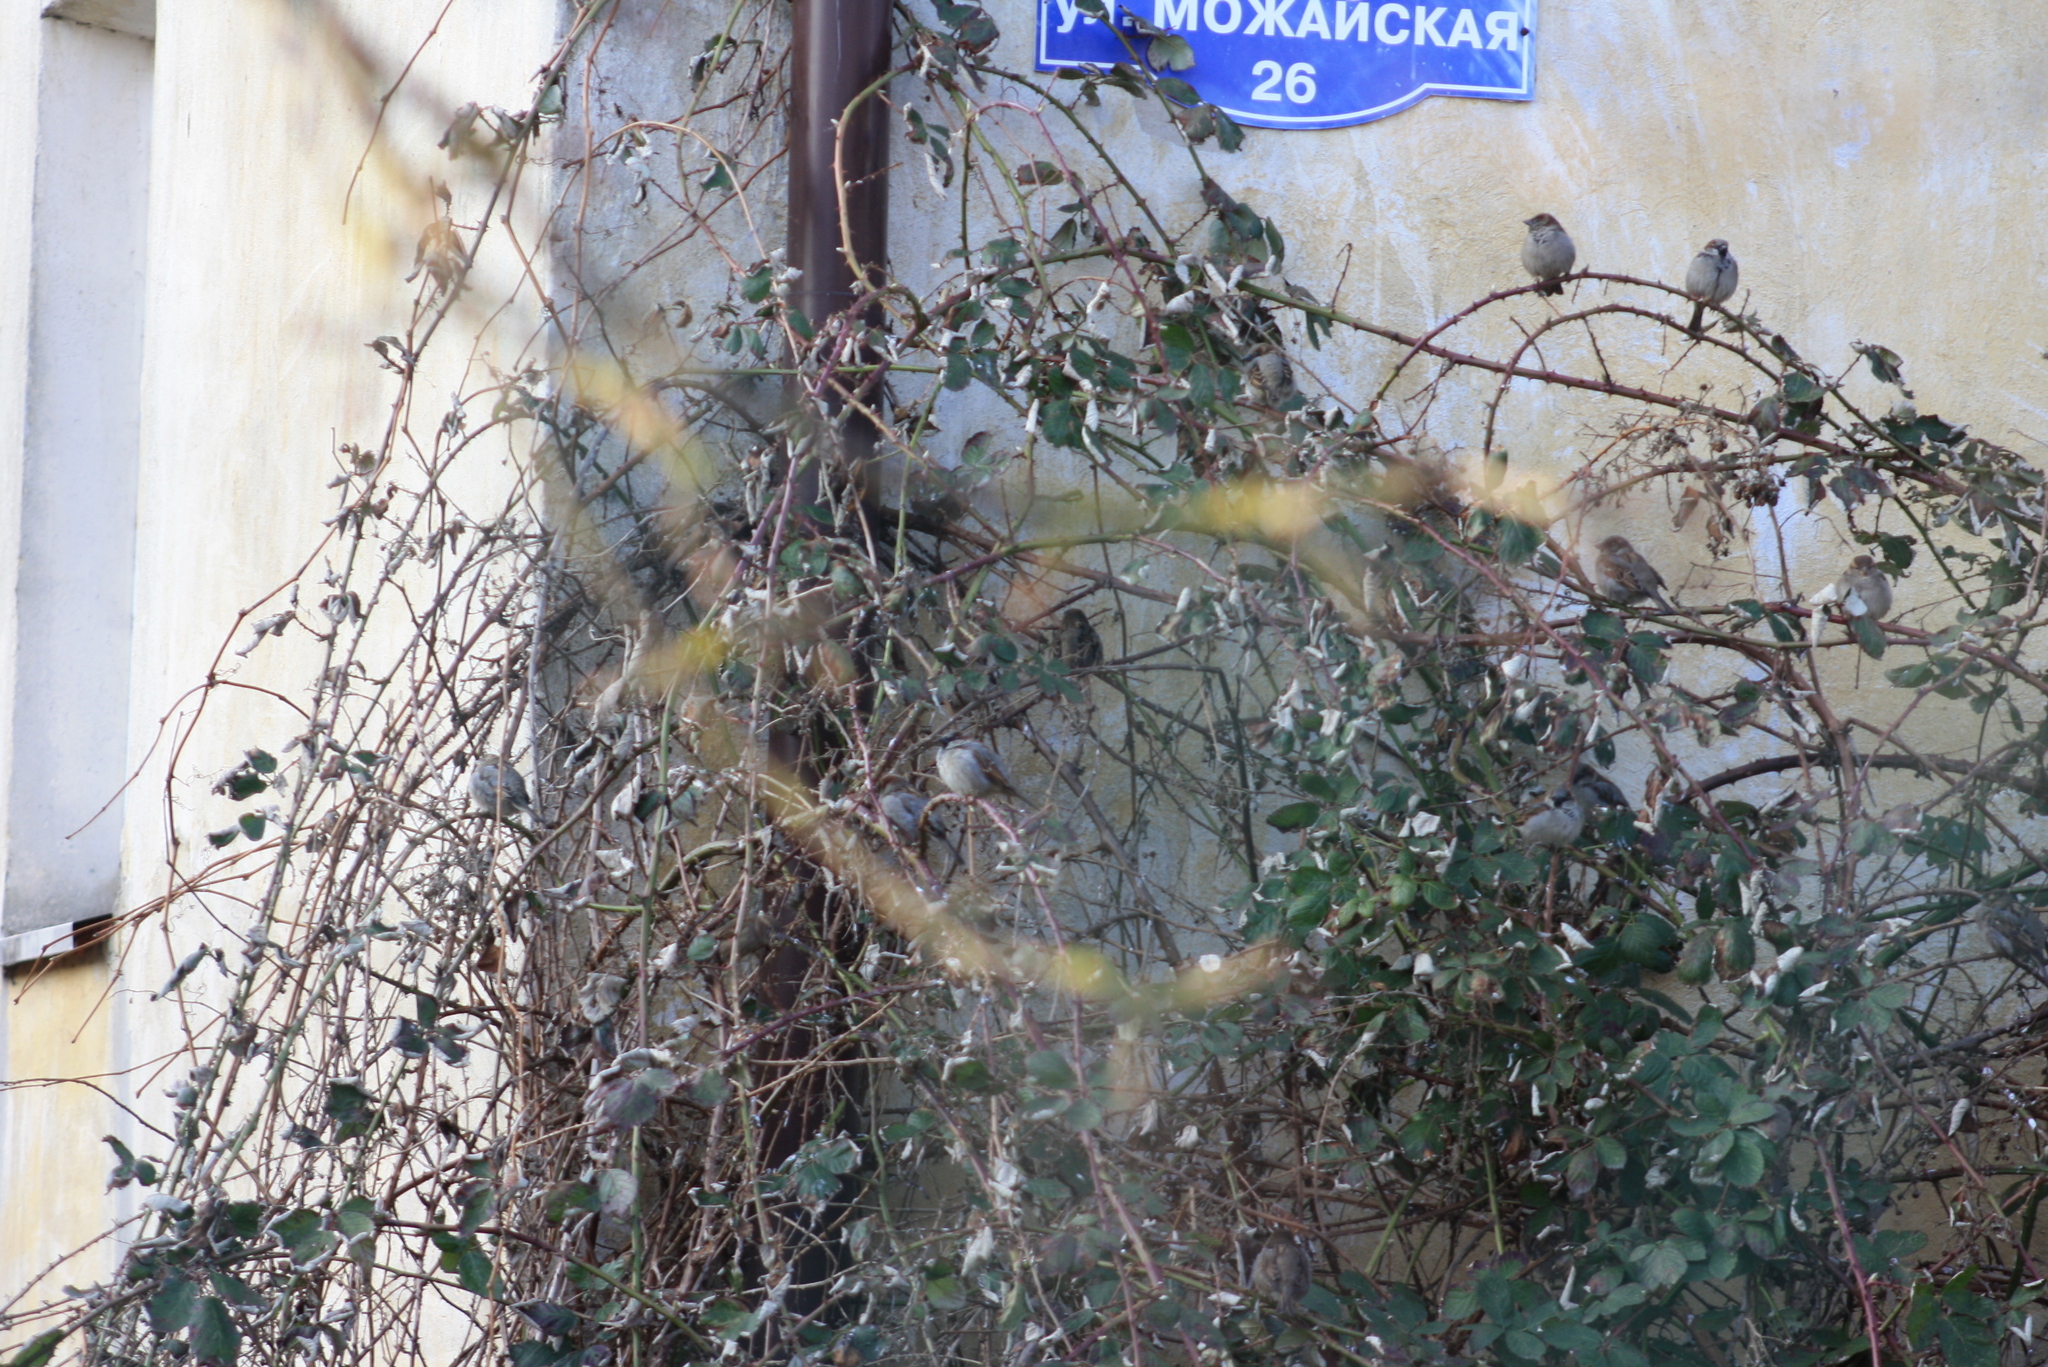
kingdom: Animalia
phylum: Chordata
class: Aves
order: Passeriformes
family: Passeridae
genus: Passer
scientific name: Passer domesticus
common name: House sparrow
